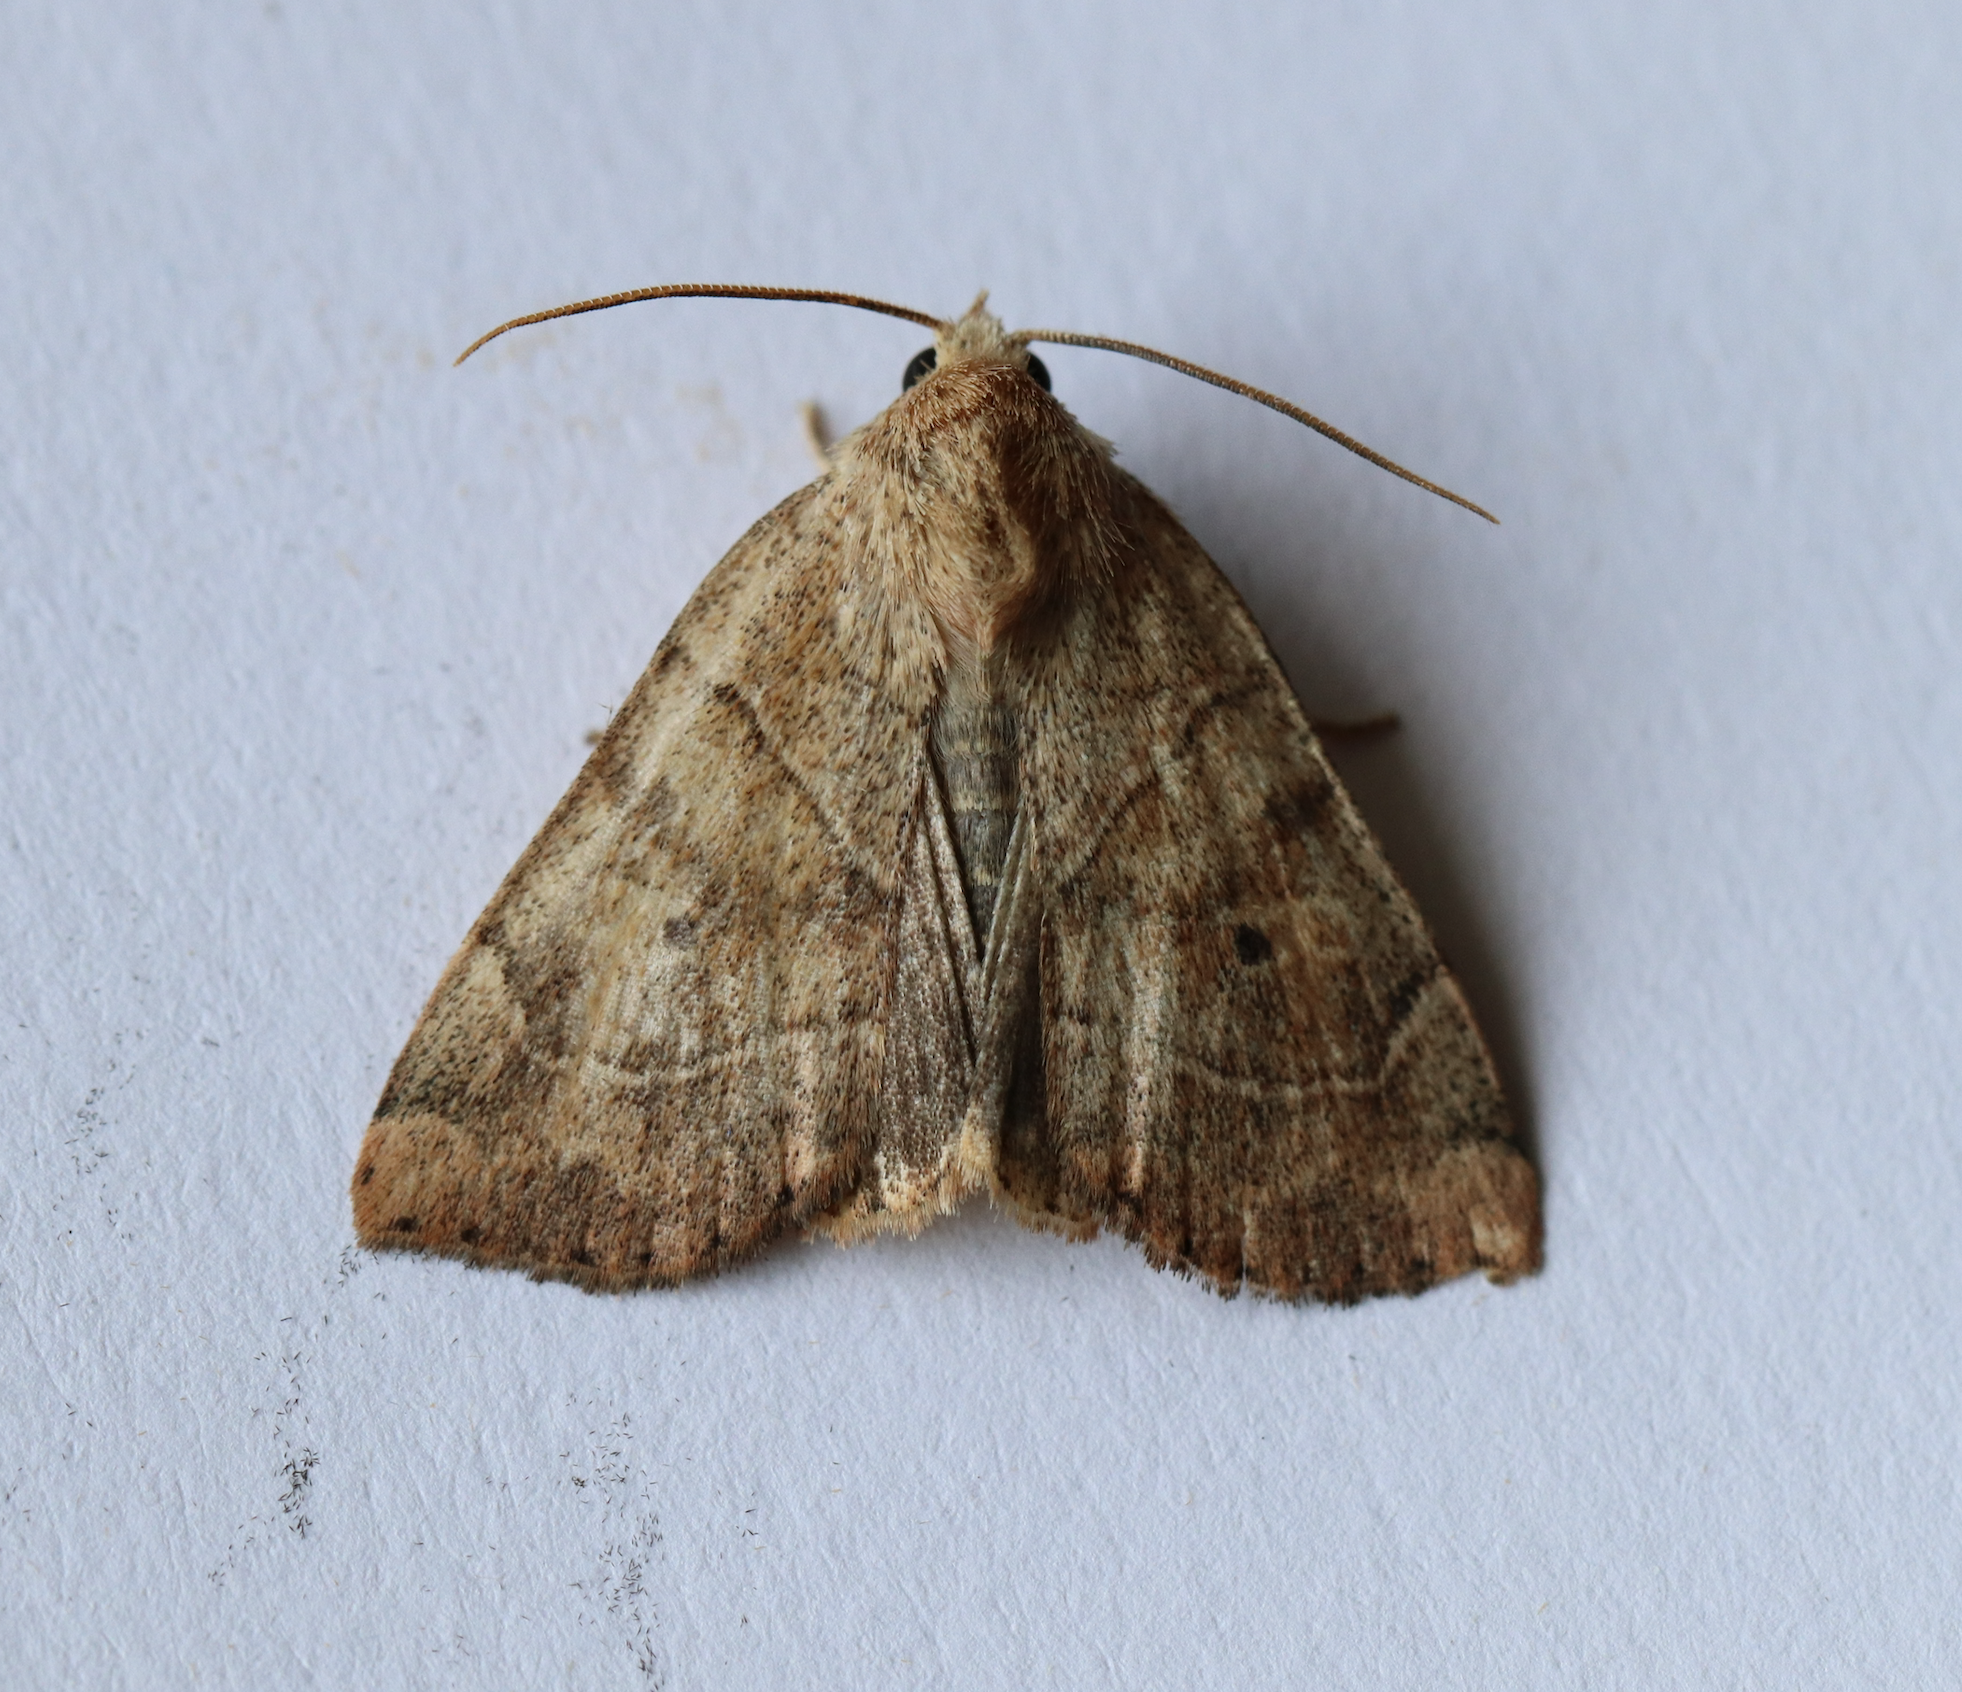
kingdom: Animalia
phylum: Arthropoda
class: Insecta
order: Lepidoptera
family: Noctuidae
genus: Cosmia
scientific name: Cosmia trapezina
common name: Dun-bar
